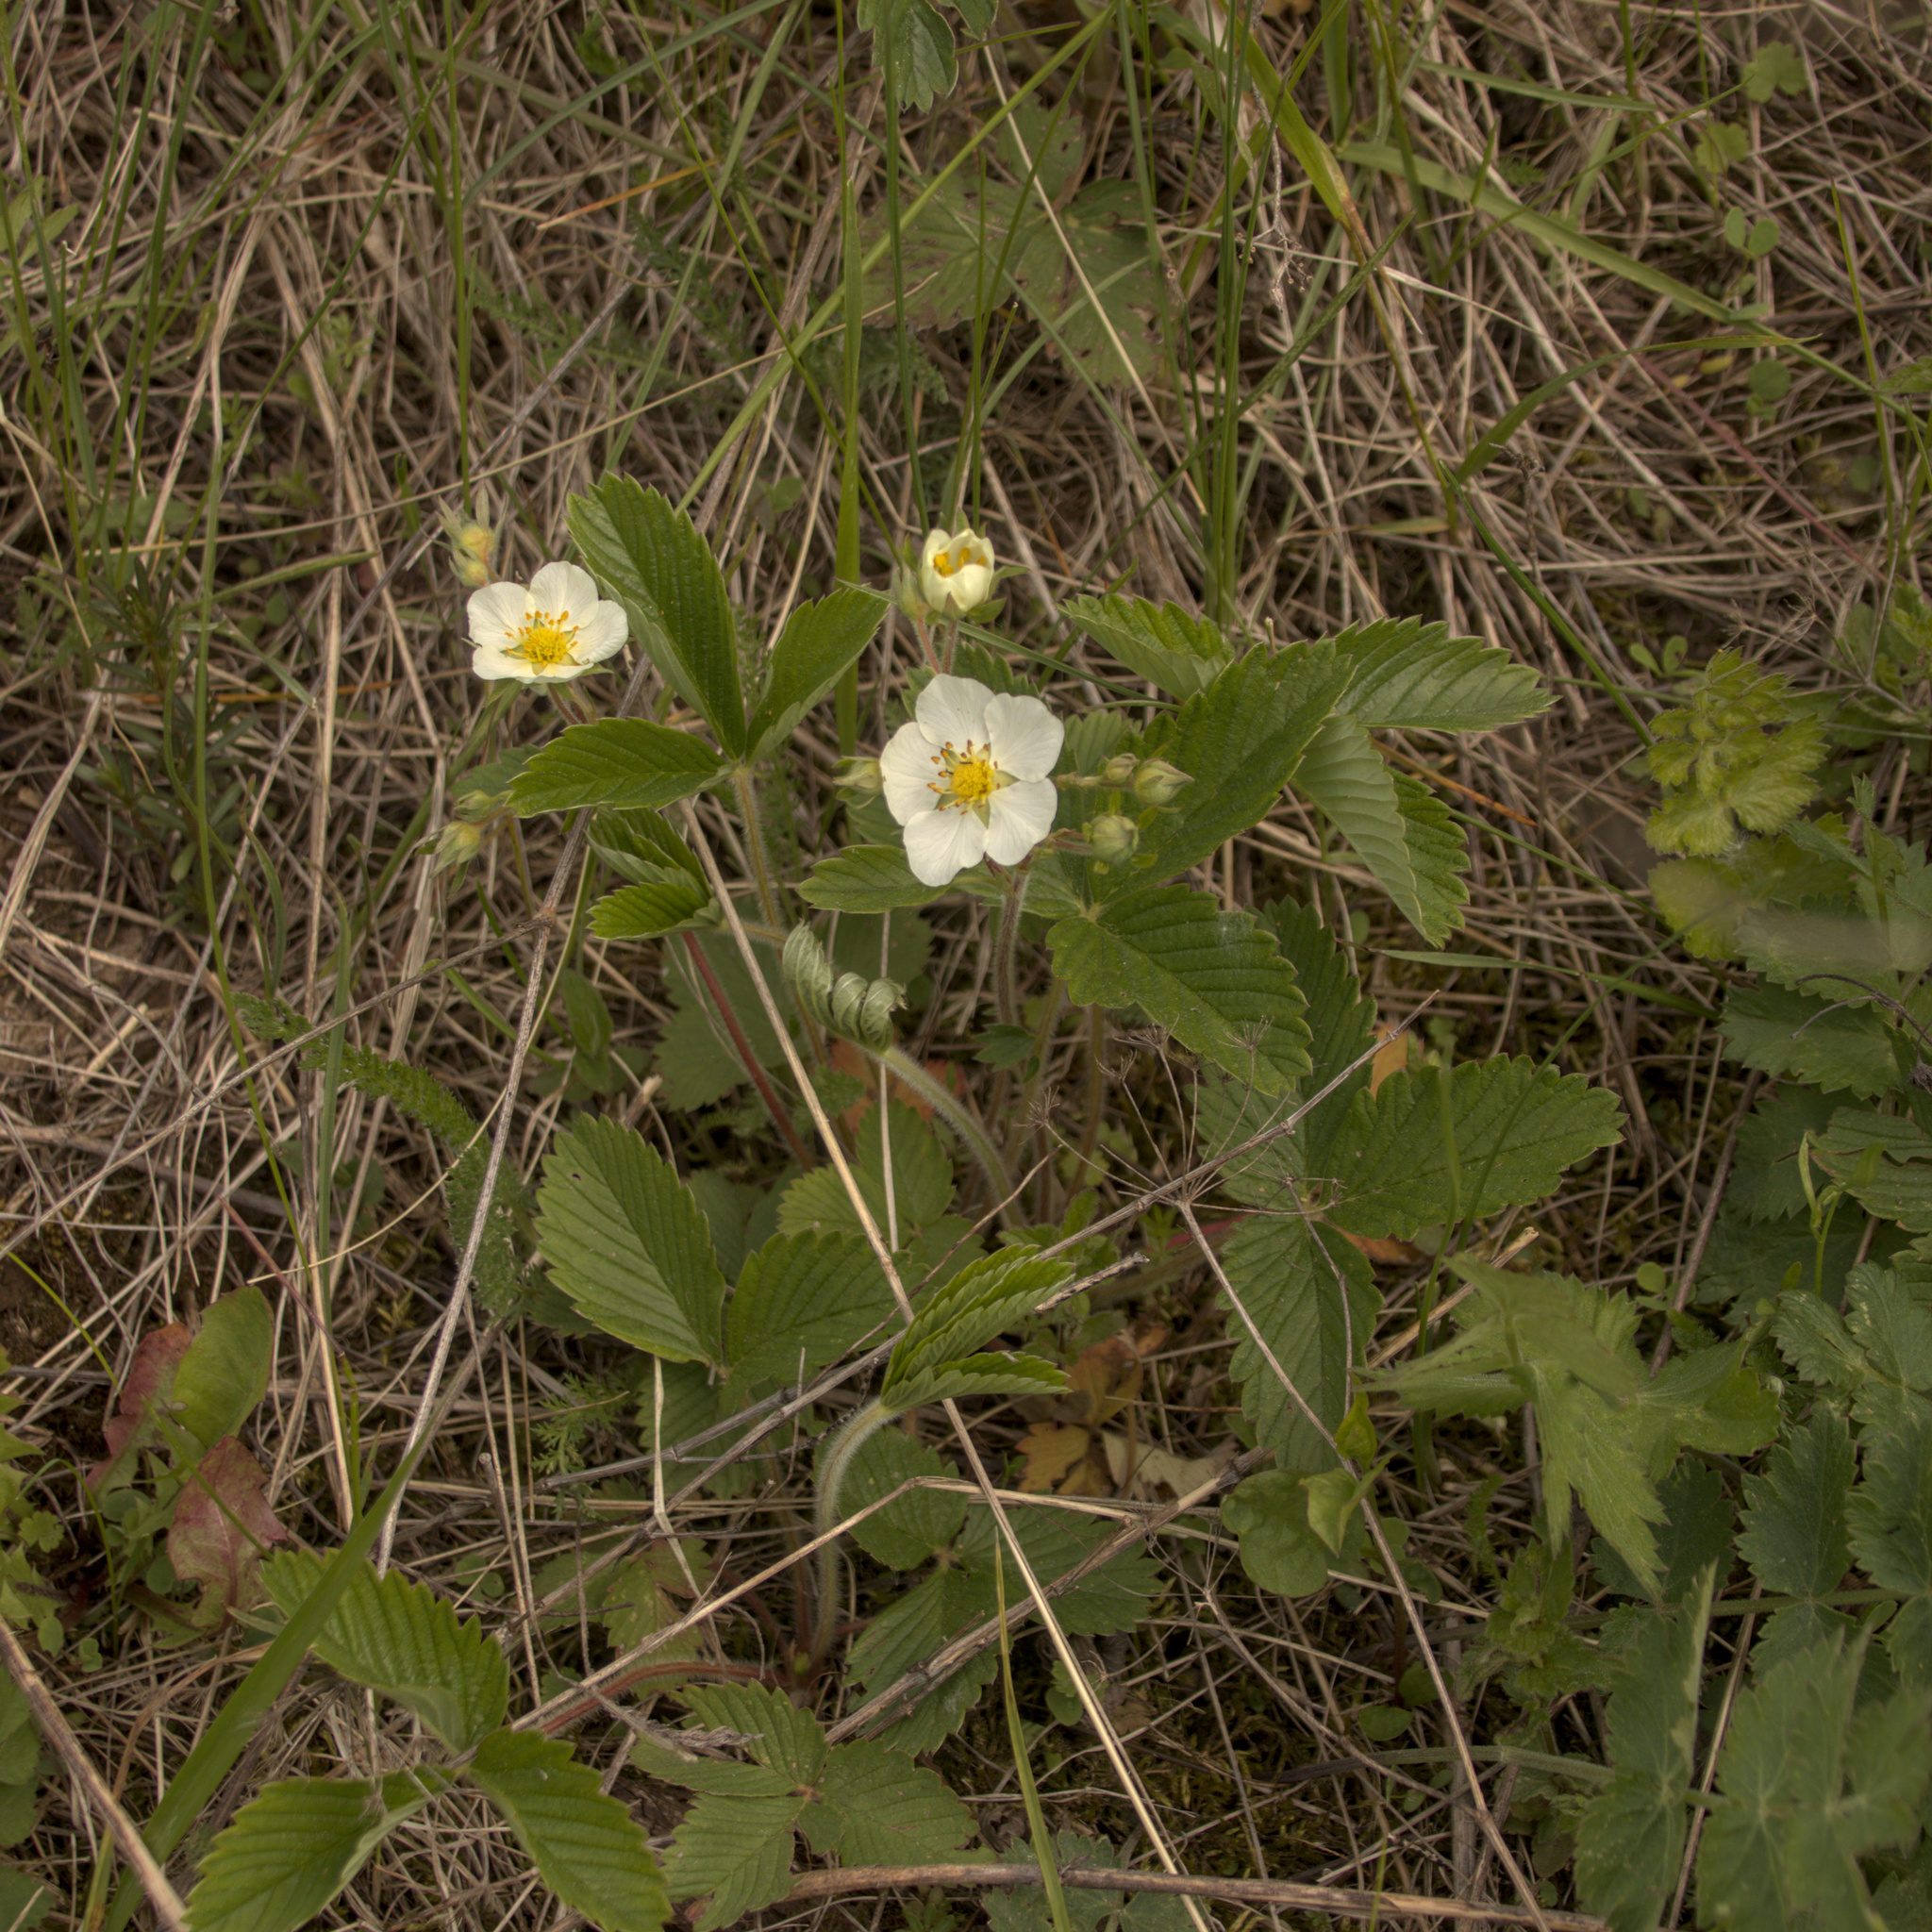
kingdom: Plantae
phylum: Tracheophyta
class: Magnoliopsida
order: Rosales
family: Rosaceae
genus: Fragaria
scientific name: Fragaria viridis
